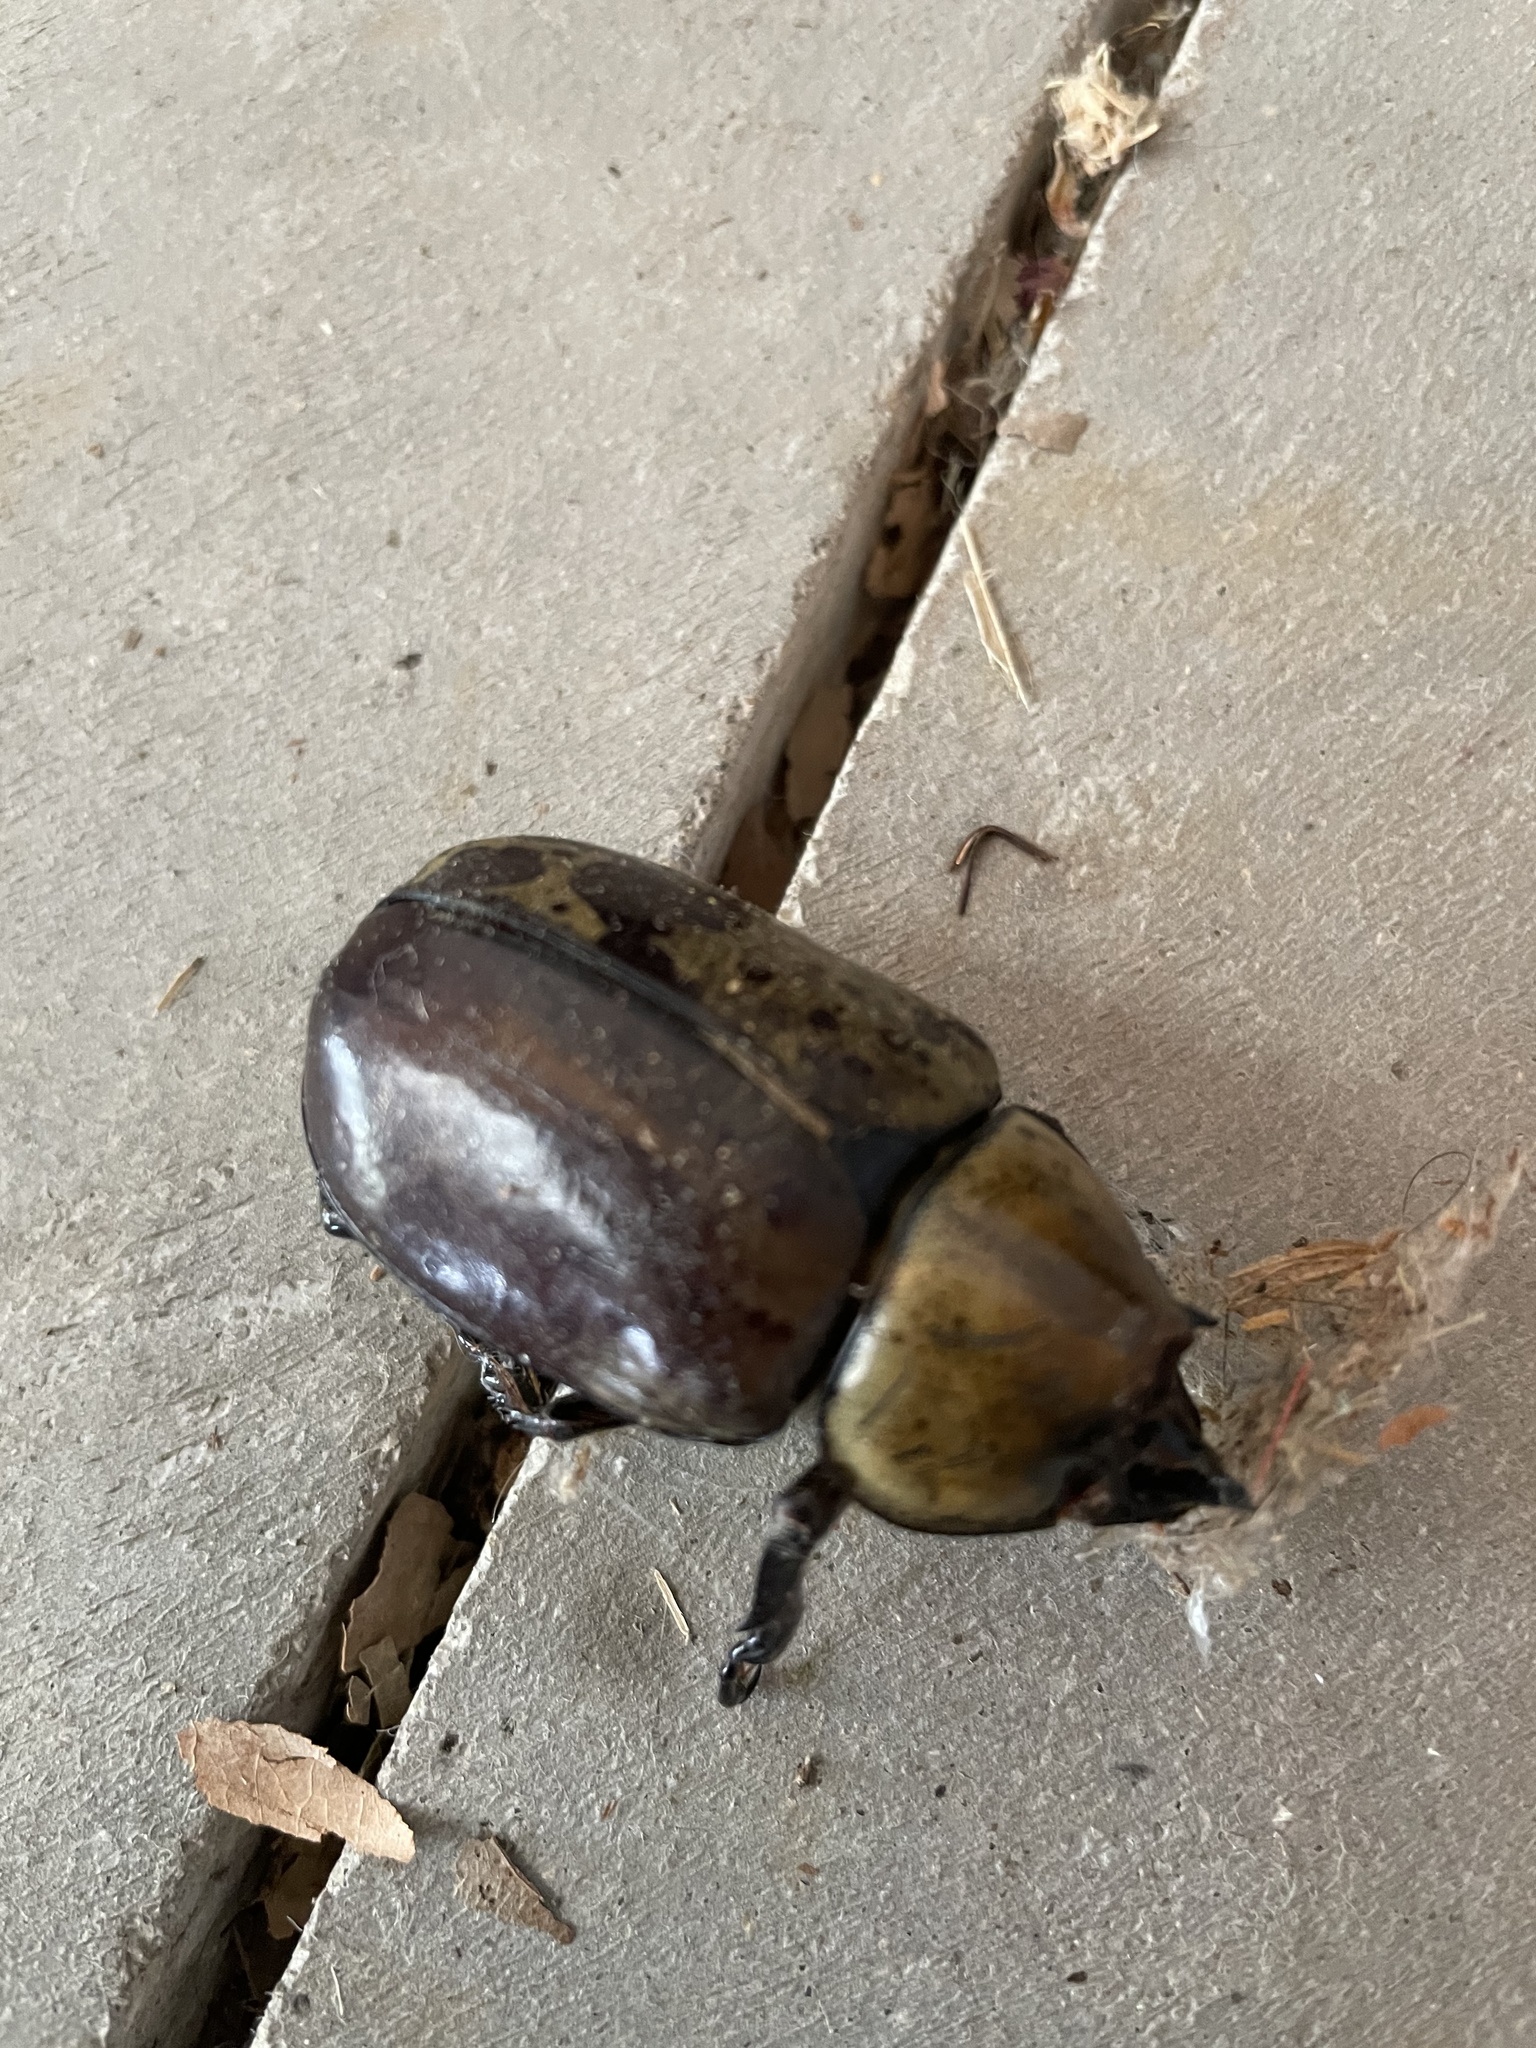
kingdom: Animalia
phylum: Arthropoda
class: Insecta
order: Coleoptera
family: Scarabaeidae
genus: Dynastes
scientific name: Dynastes tityus
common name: Eastern hercules beetle
